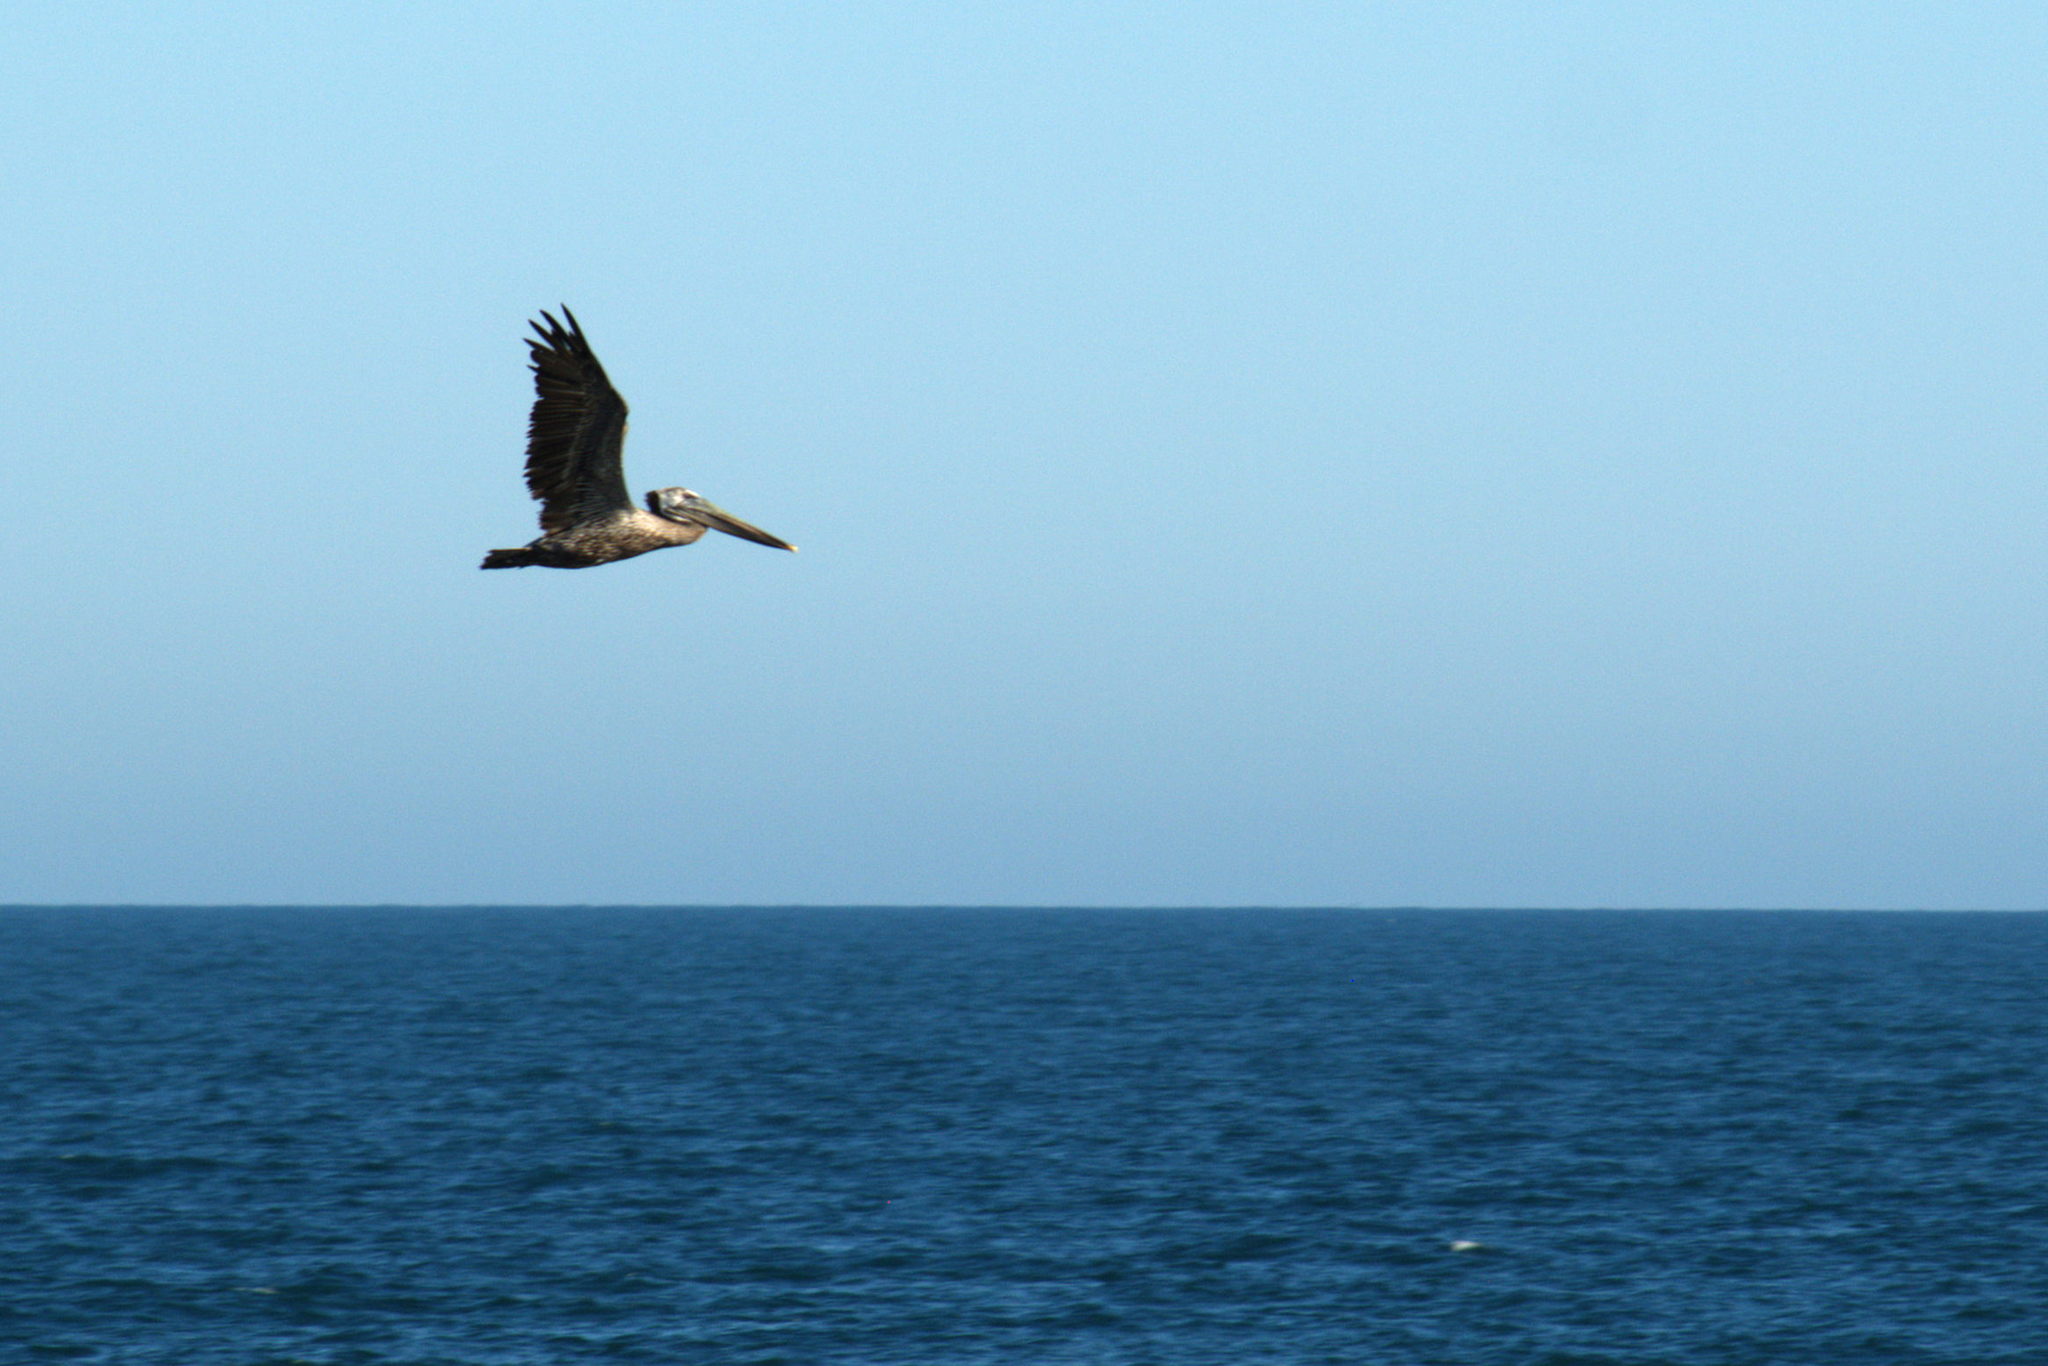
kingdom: Animalia
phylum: Chordata
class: Aves
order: Pelecaniformes
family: Pelecanidae
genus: Pelecanus
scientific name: Pelecanus occidentalis
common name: Brown pelican
